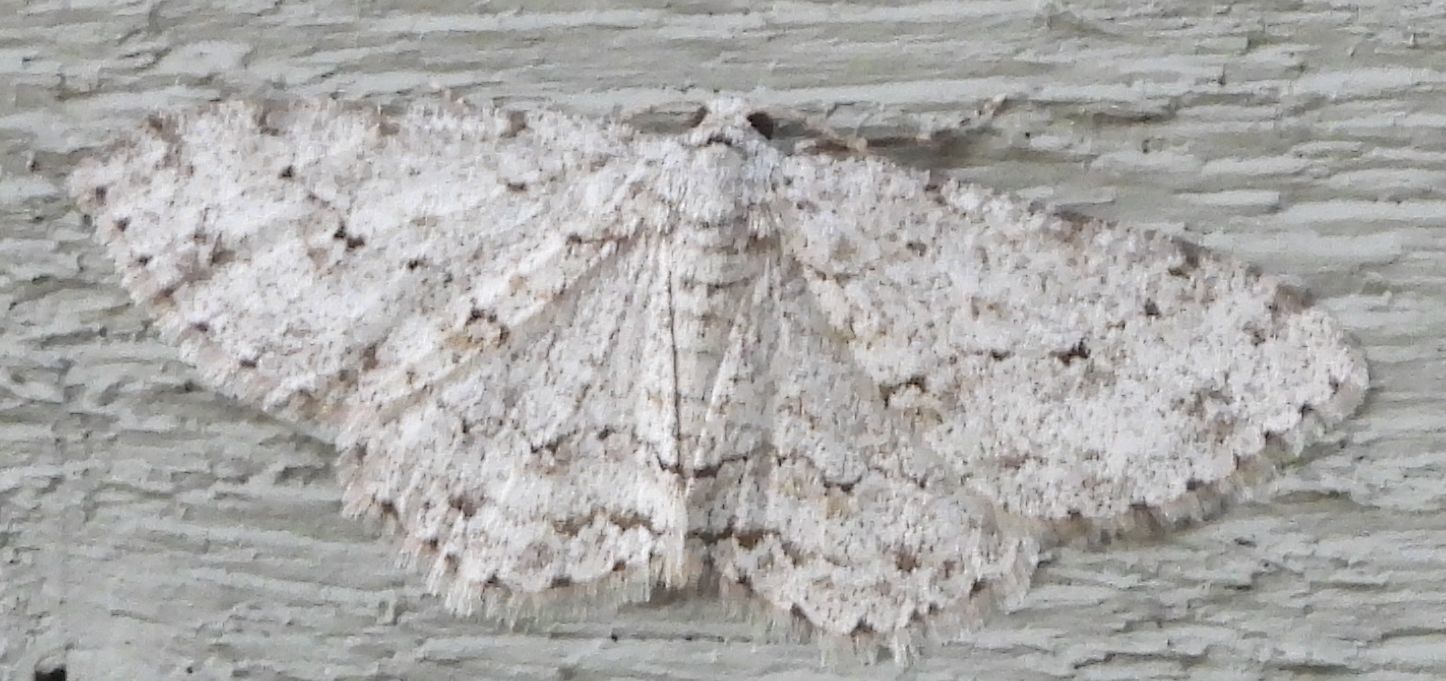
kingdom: Animalia
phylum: Arthropoda
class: Insecta
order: Lepidoptera
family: Geometridae
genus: Ectropis
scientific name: Ectropis crepuscularia
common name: Engrailed
